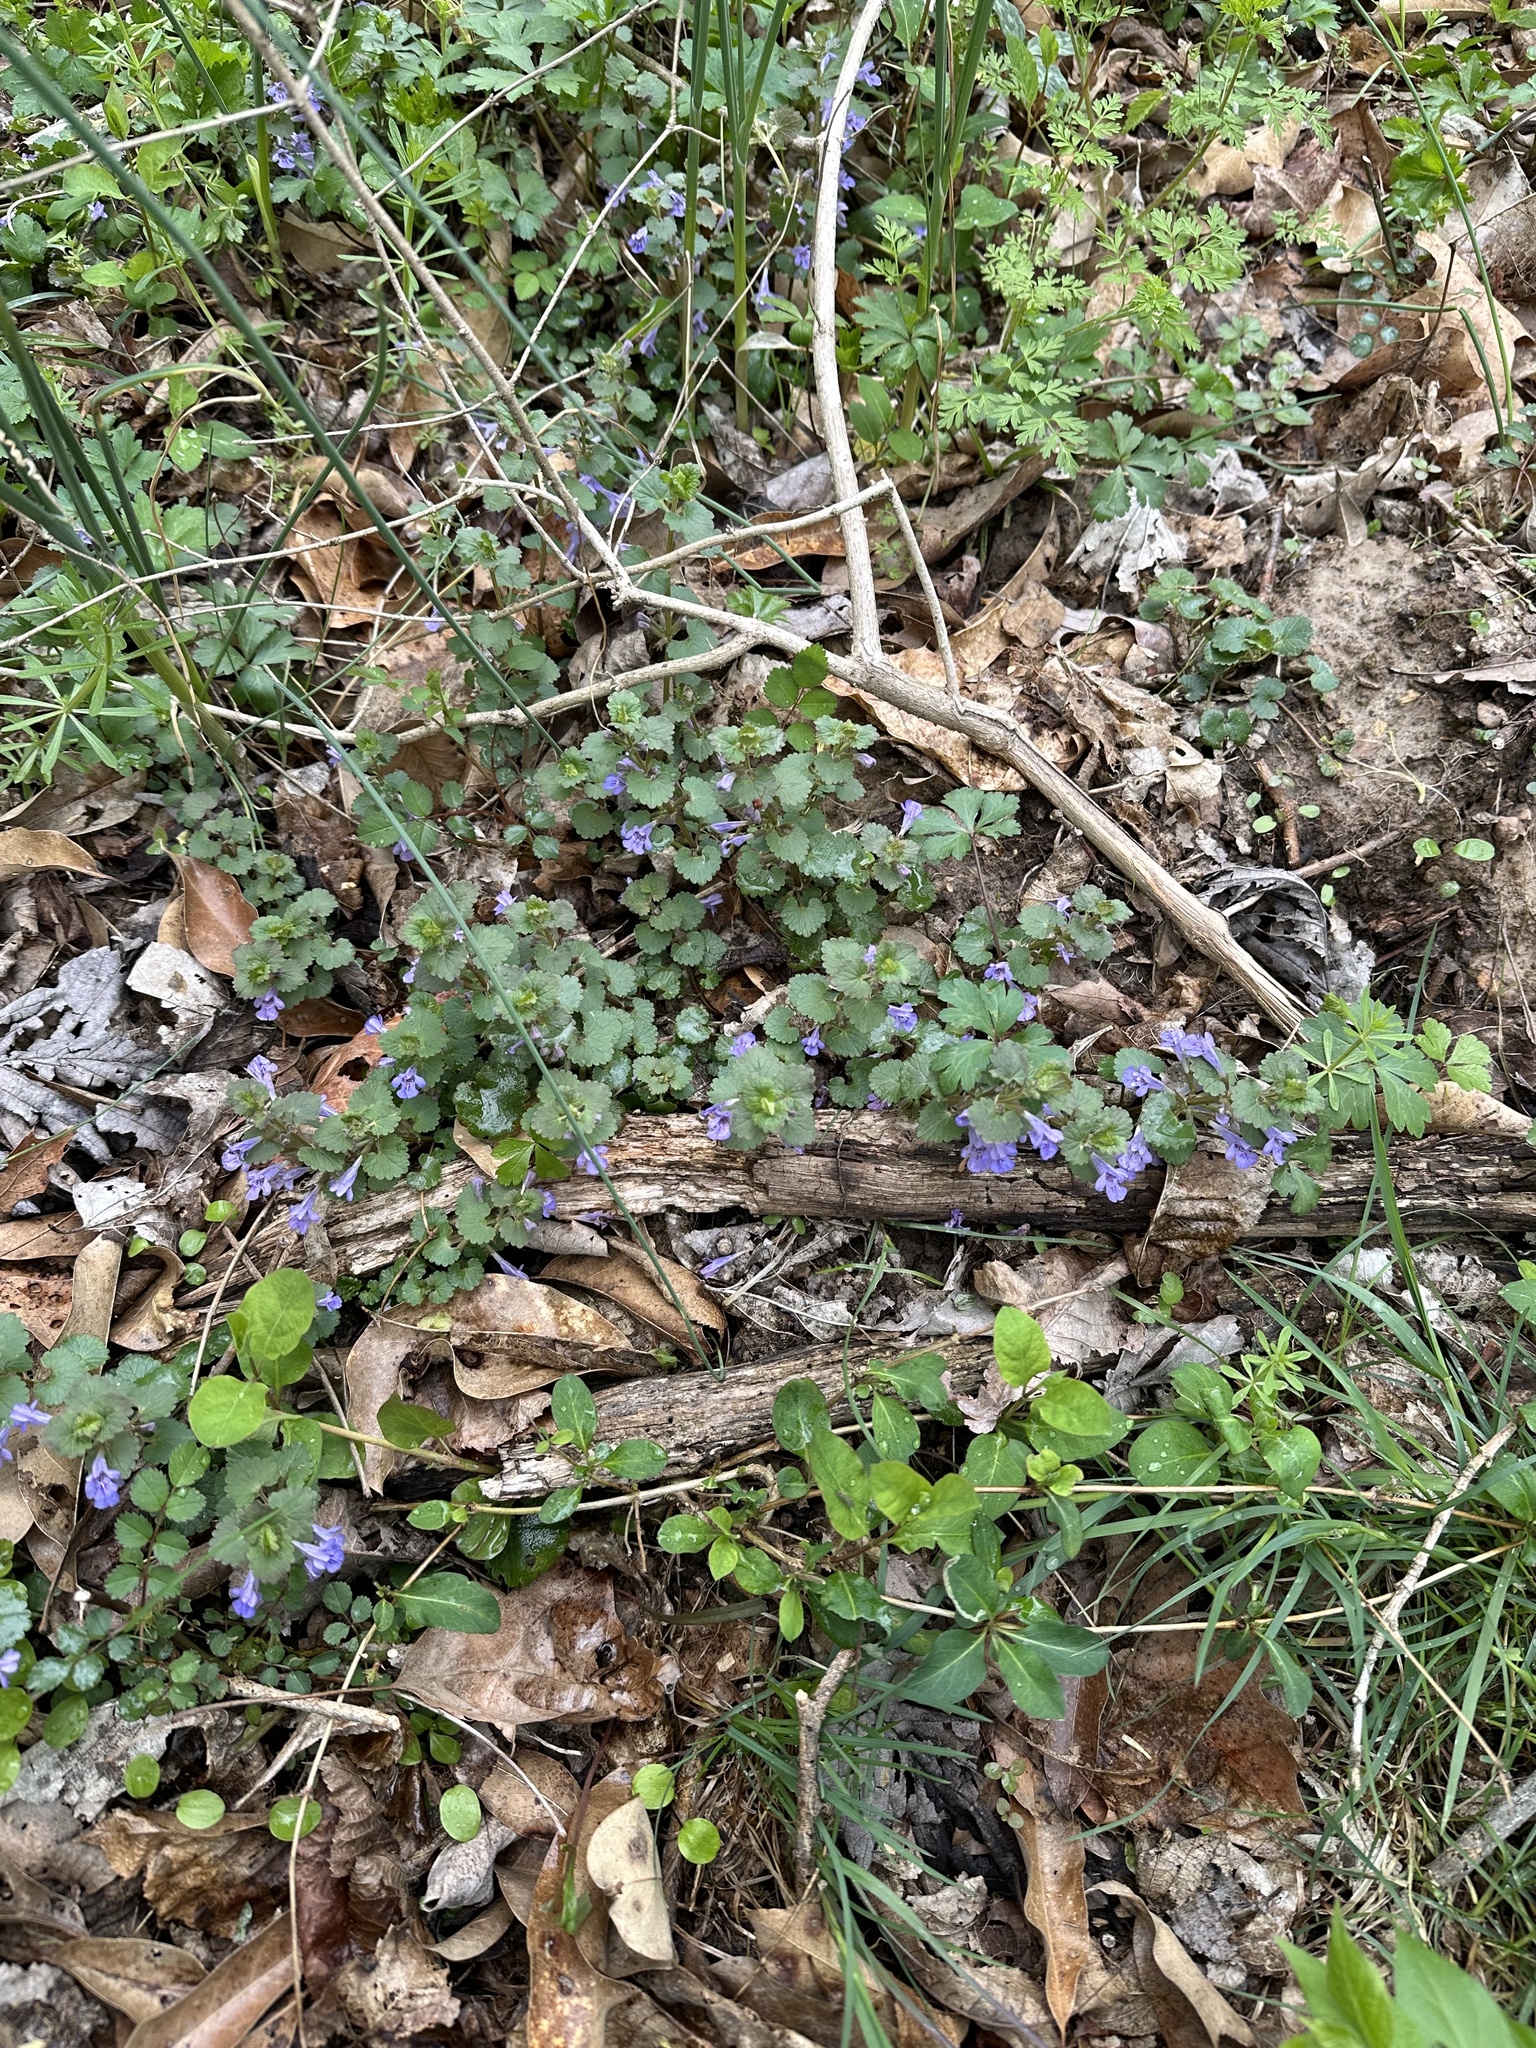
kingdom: Plantae
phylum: Tracheophyta
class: Magnoliopsida
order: Lamiales
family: Lamiaceae
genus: Glechoma
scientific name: Glechoma hederacea
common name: Ground ivy
